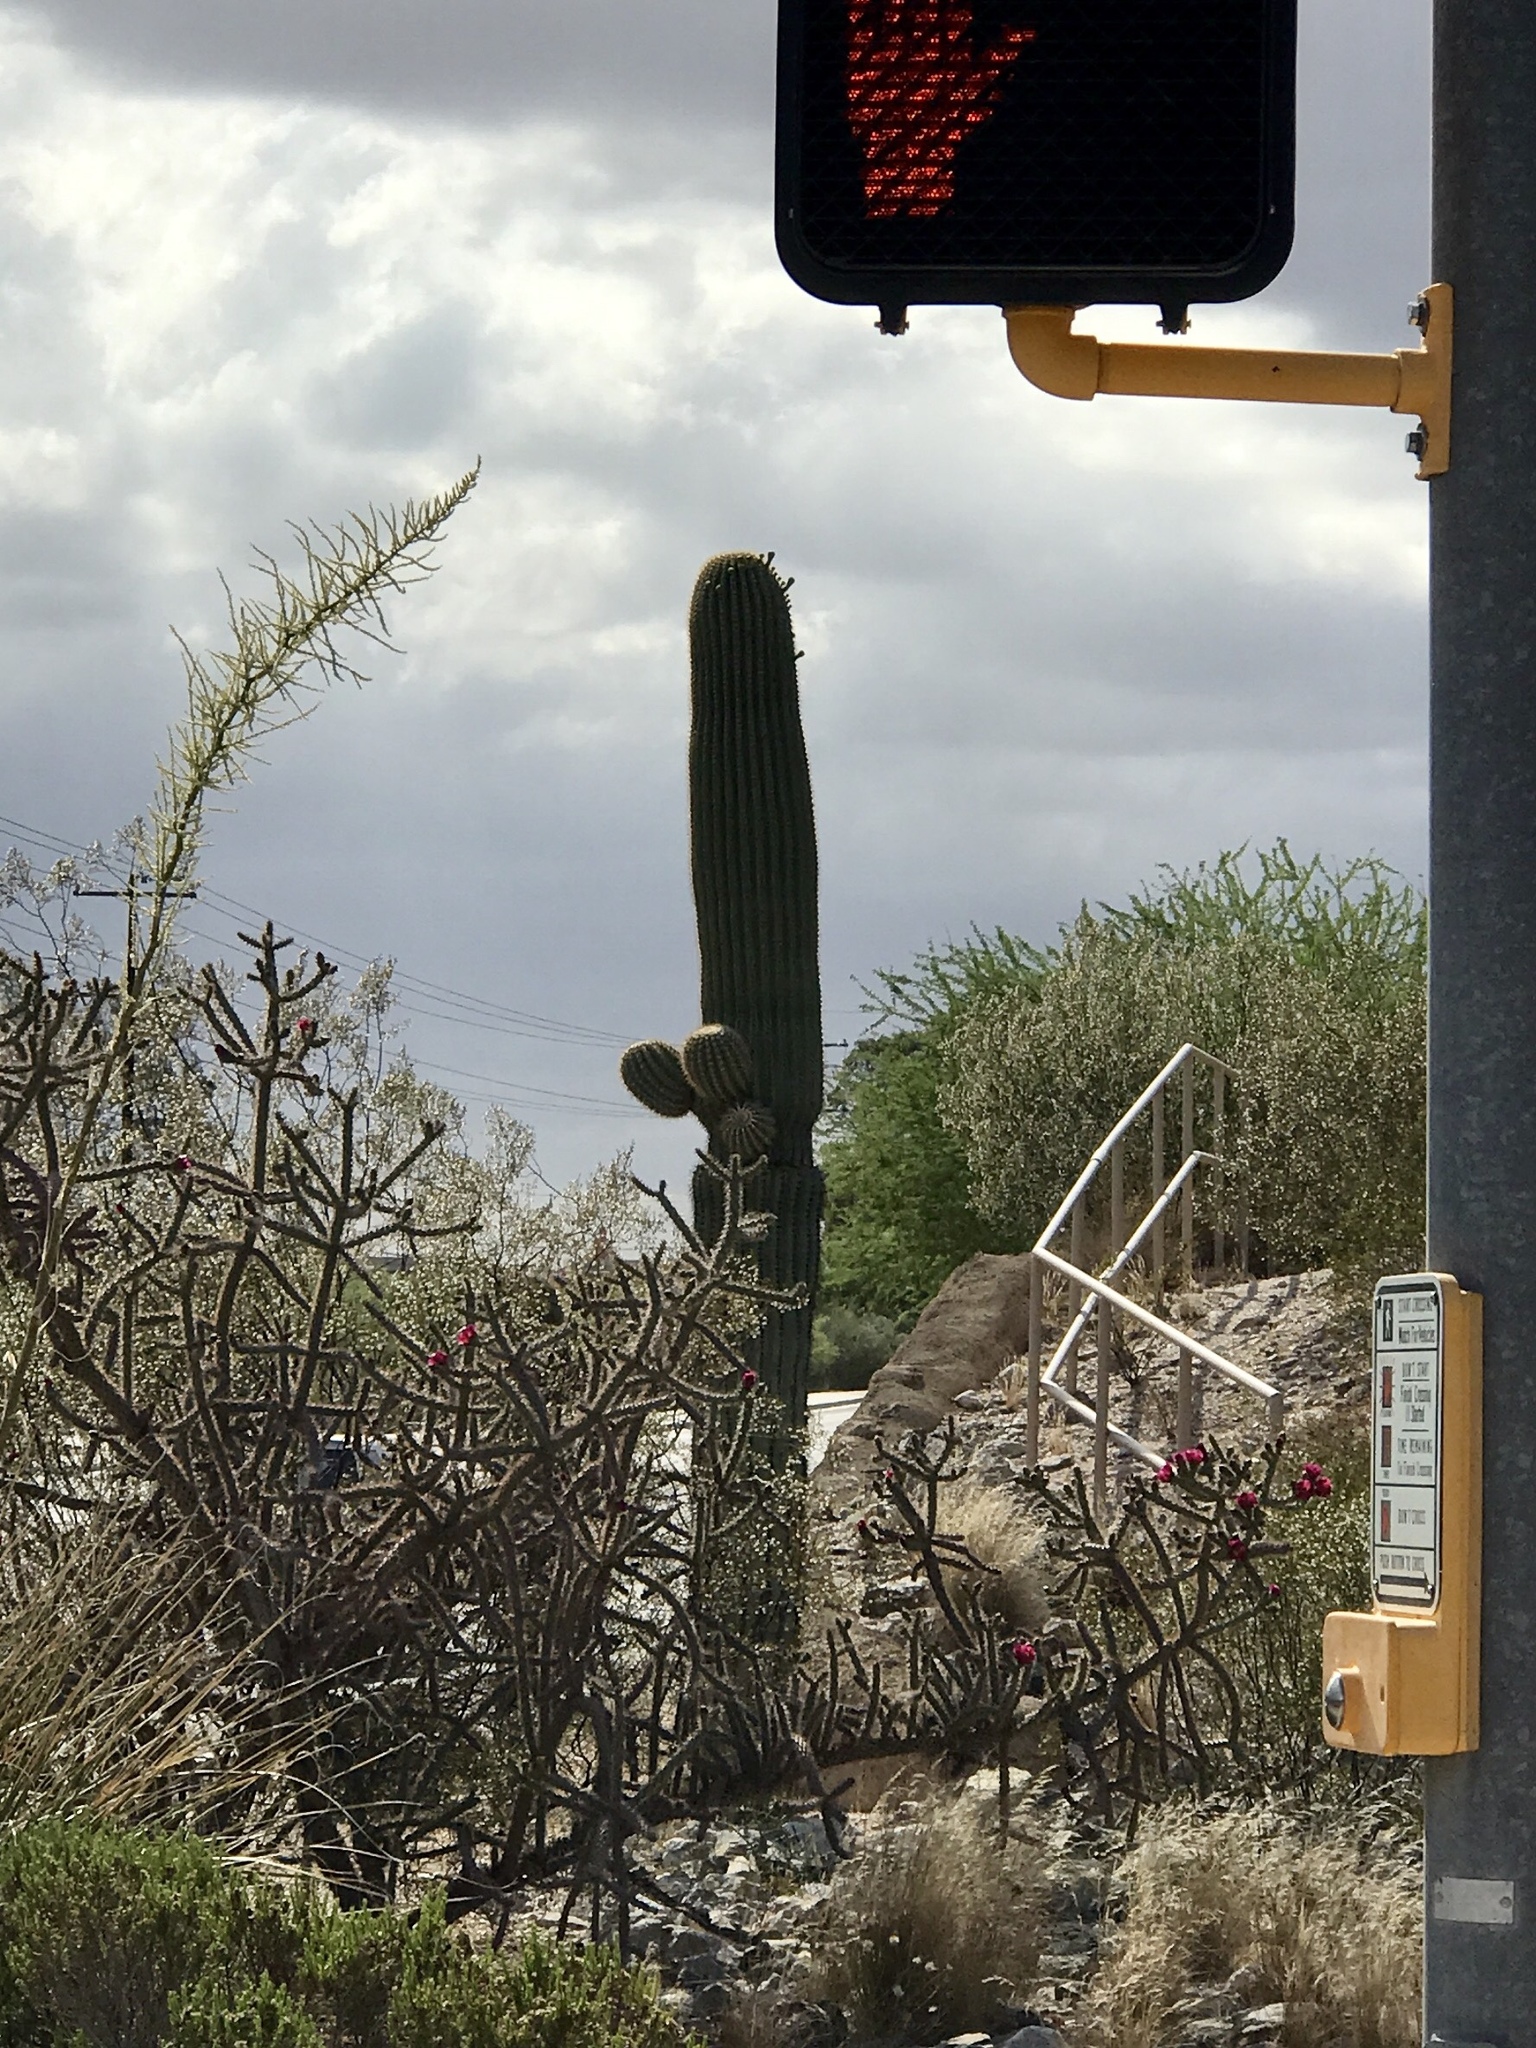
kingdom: Plantae
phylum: Tracheophyta
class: Magnoliopsida
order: Caryophyllales
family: Cactaceae
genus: Carnegiea
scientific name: Carnegiea gigantea
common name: Saguaro
